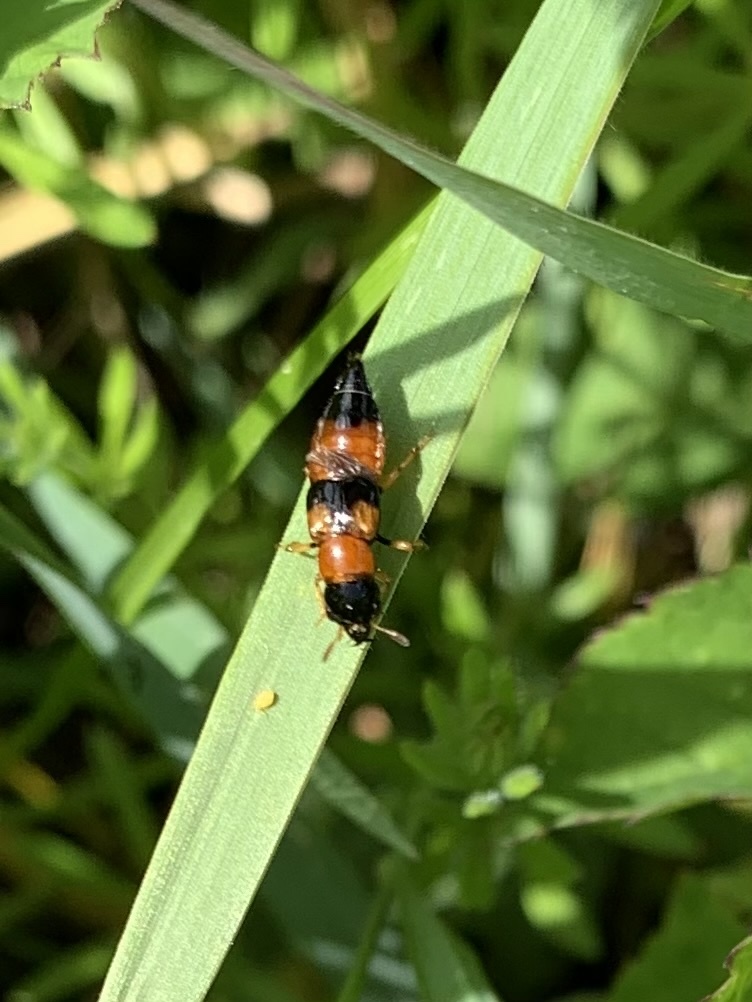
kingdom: Animalia
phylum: Arthropoda
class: Insecta
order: Coleoptera
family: Staphylinidae
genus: Oxyporus
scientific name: Oxyporus rufus
